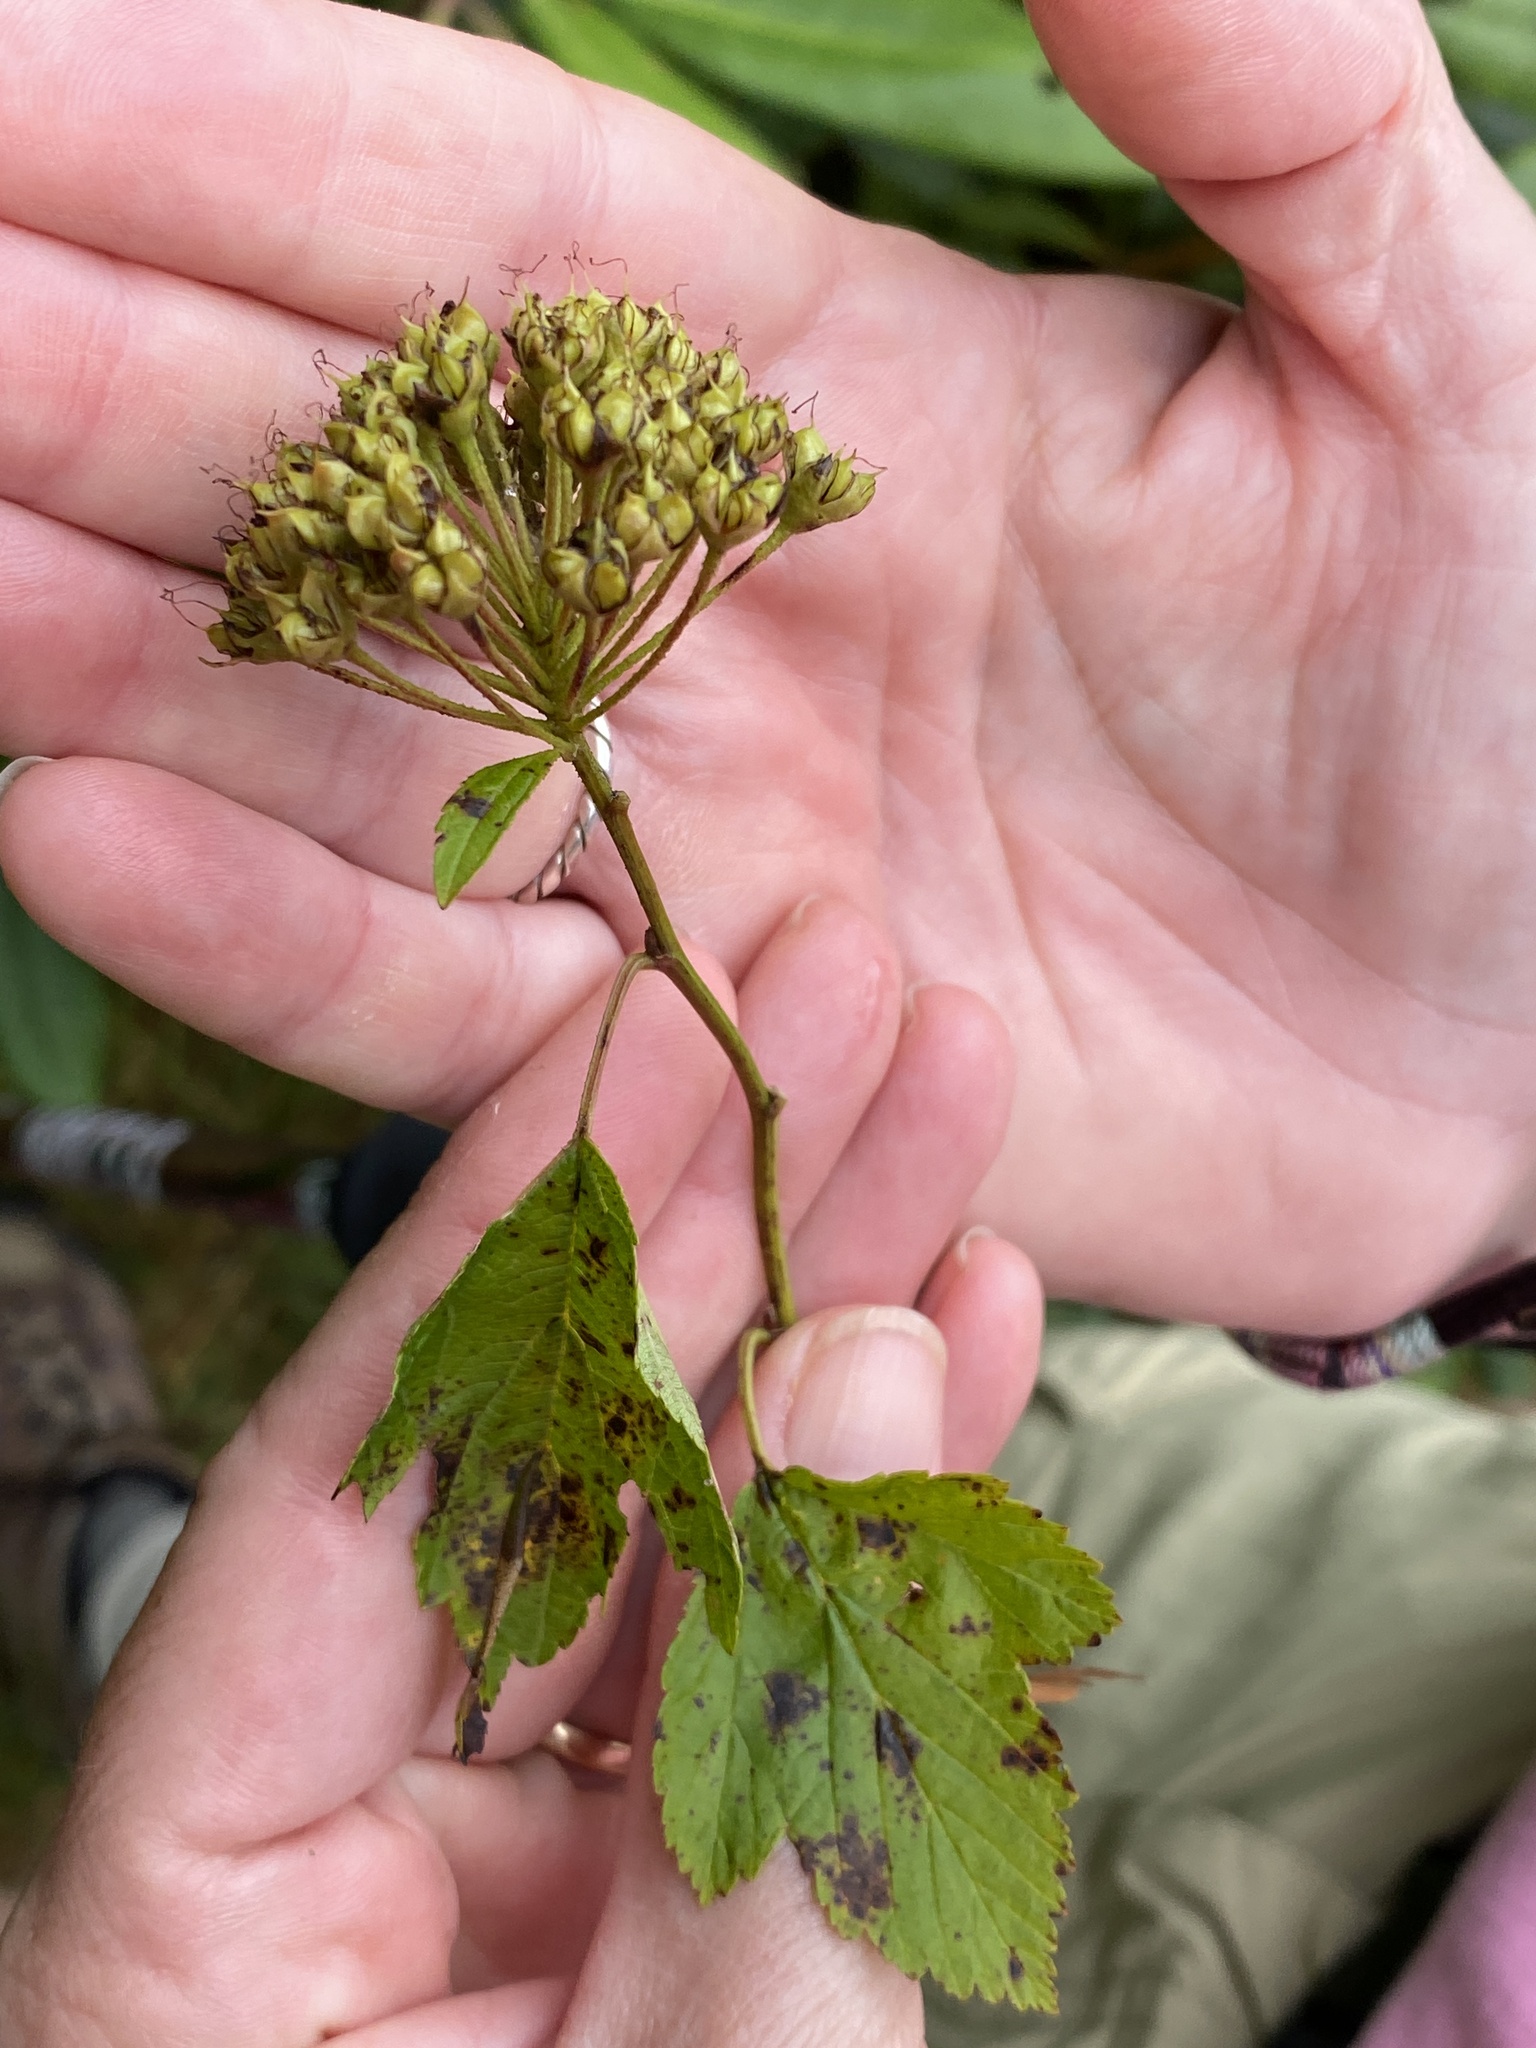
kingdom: Plantae
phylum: Tracheophyta
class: Magnoliopsida
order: Rosales
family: Rosaceae
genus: Physocarpus
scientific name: Physocarpus opulifolius
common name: Ninebark
